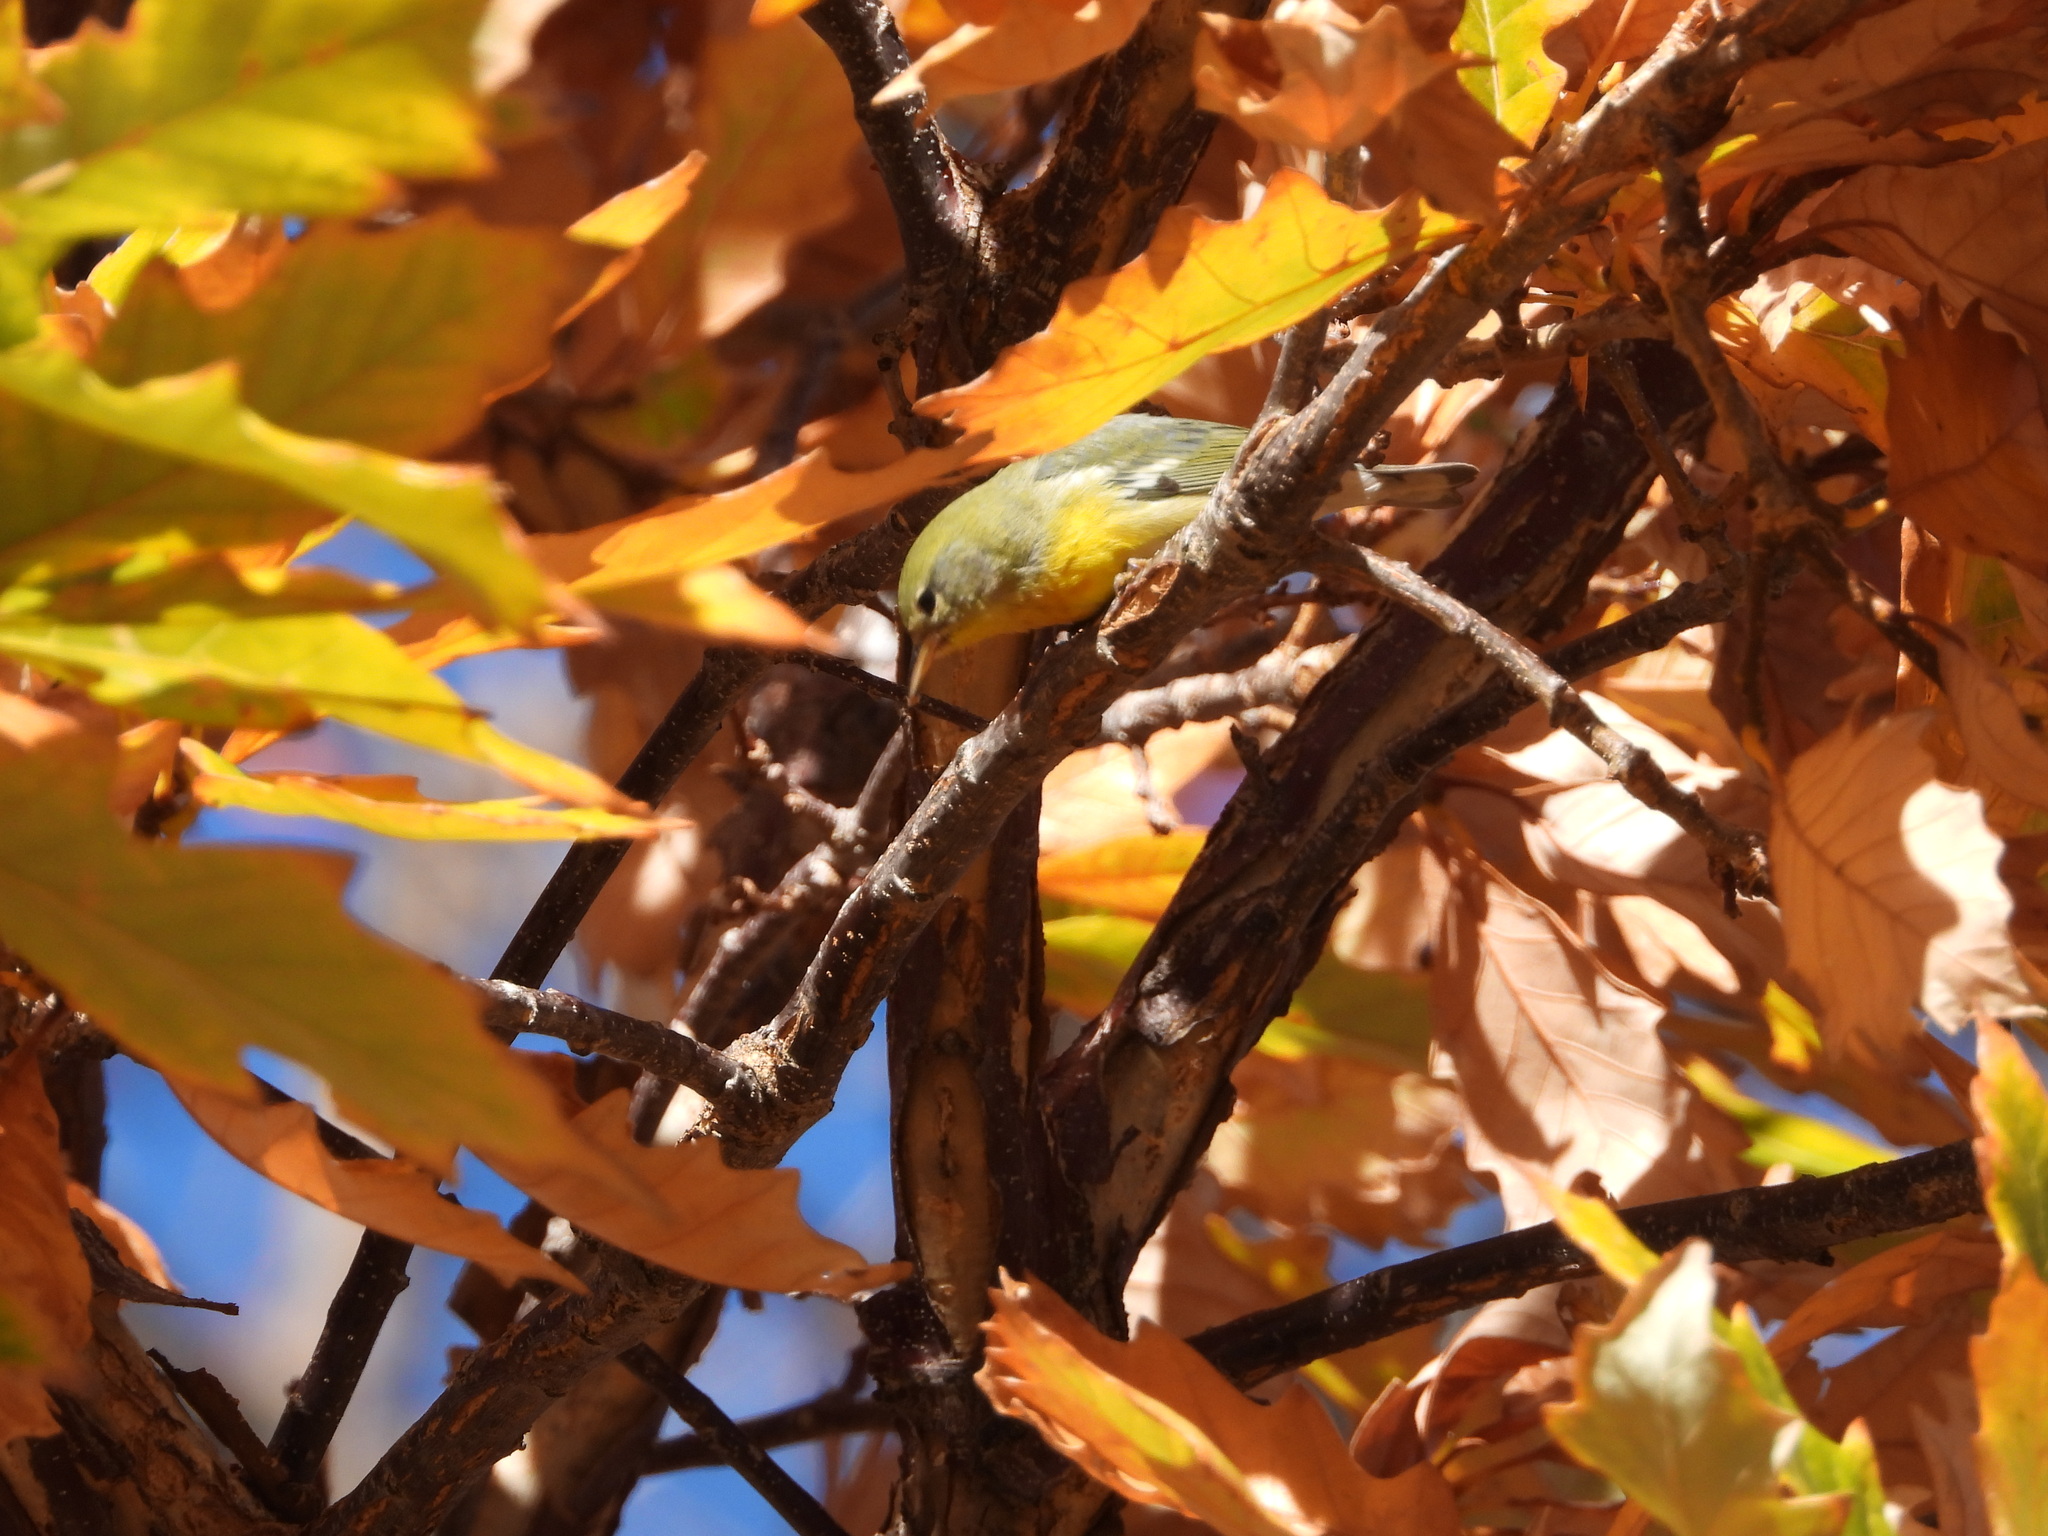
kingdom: Animalia
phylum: Chordata
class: Aves
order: Passeriformes
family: Parulidae
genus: Setophaga
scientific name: Setophaga americana
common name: Northern parula
